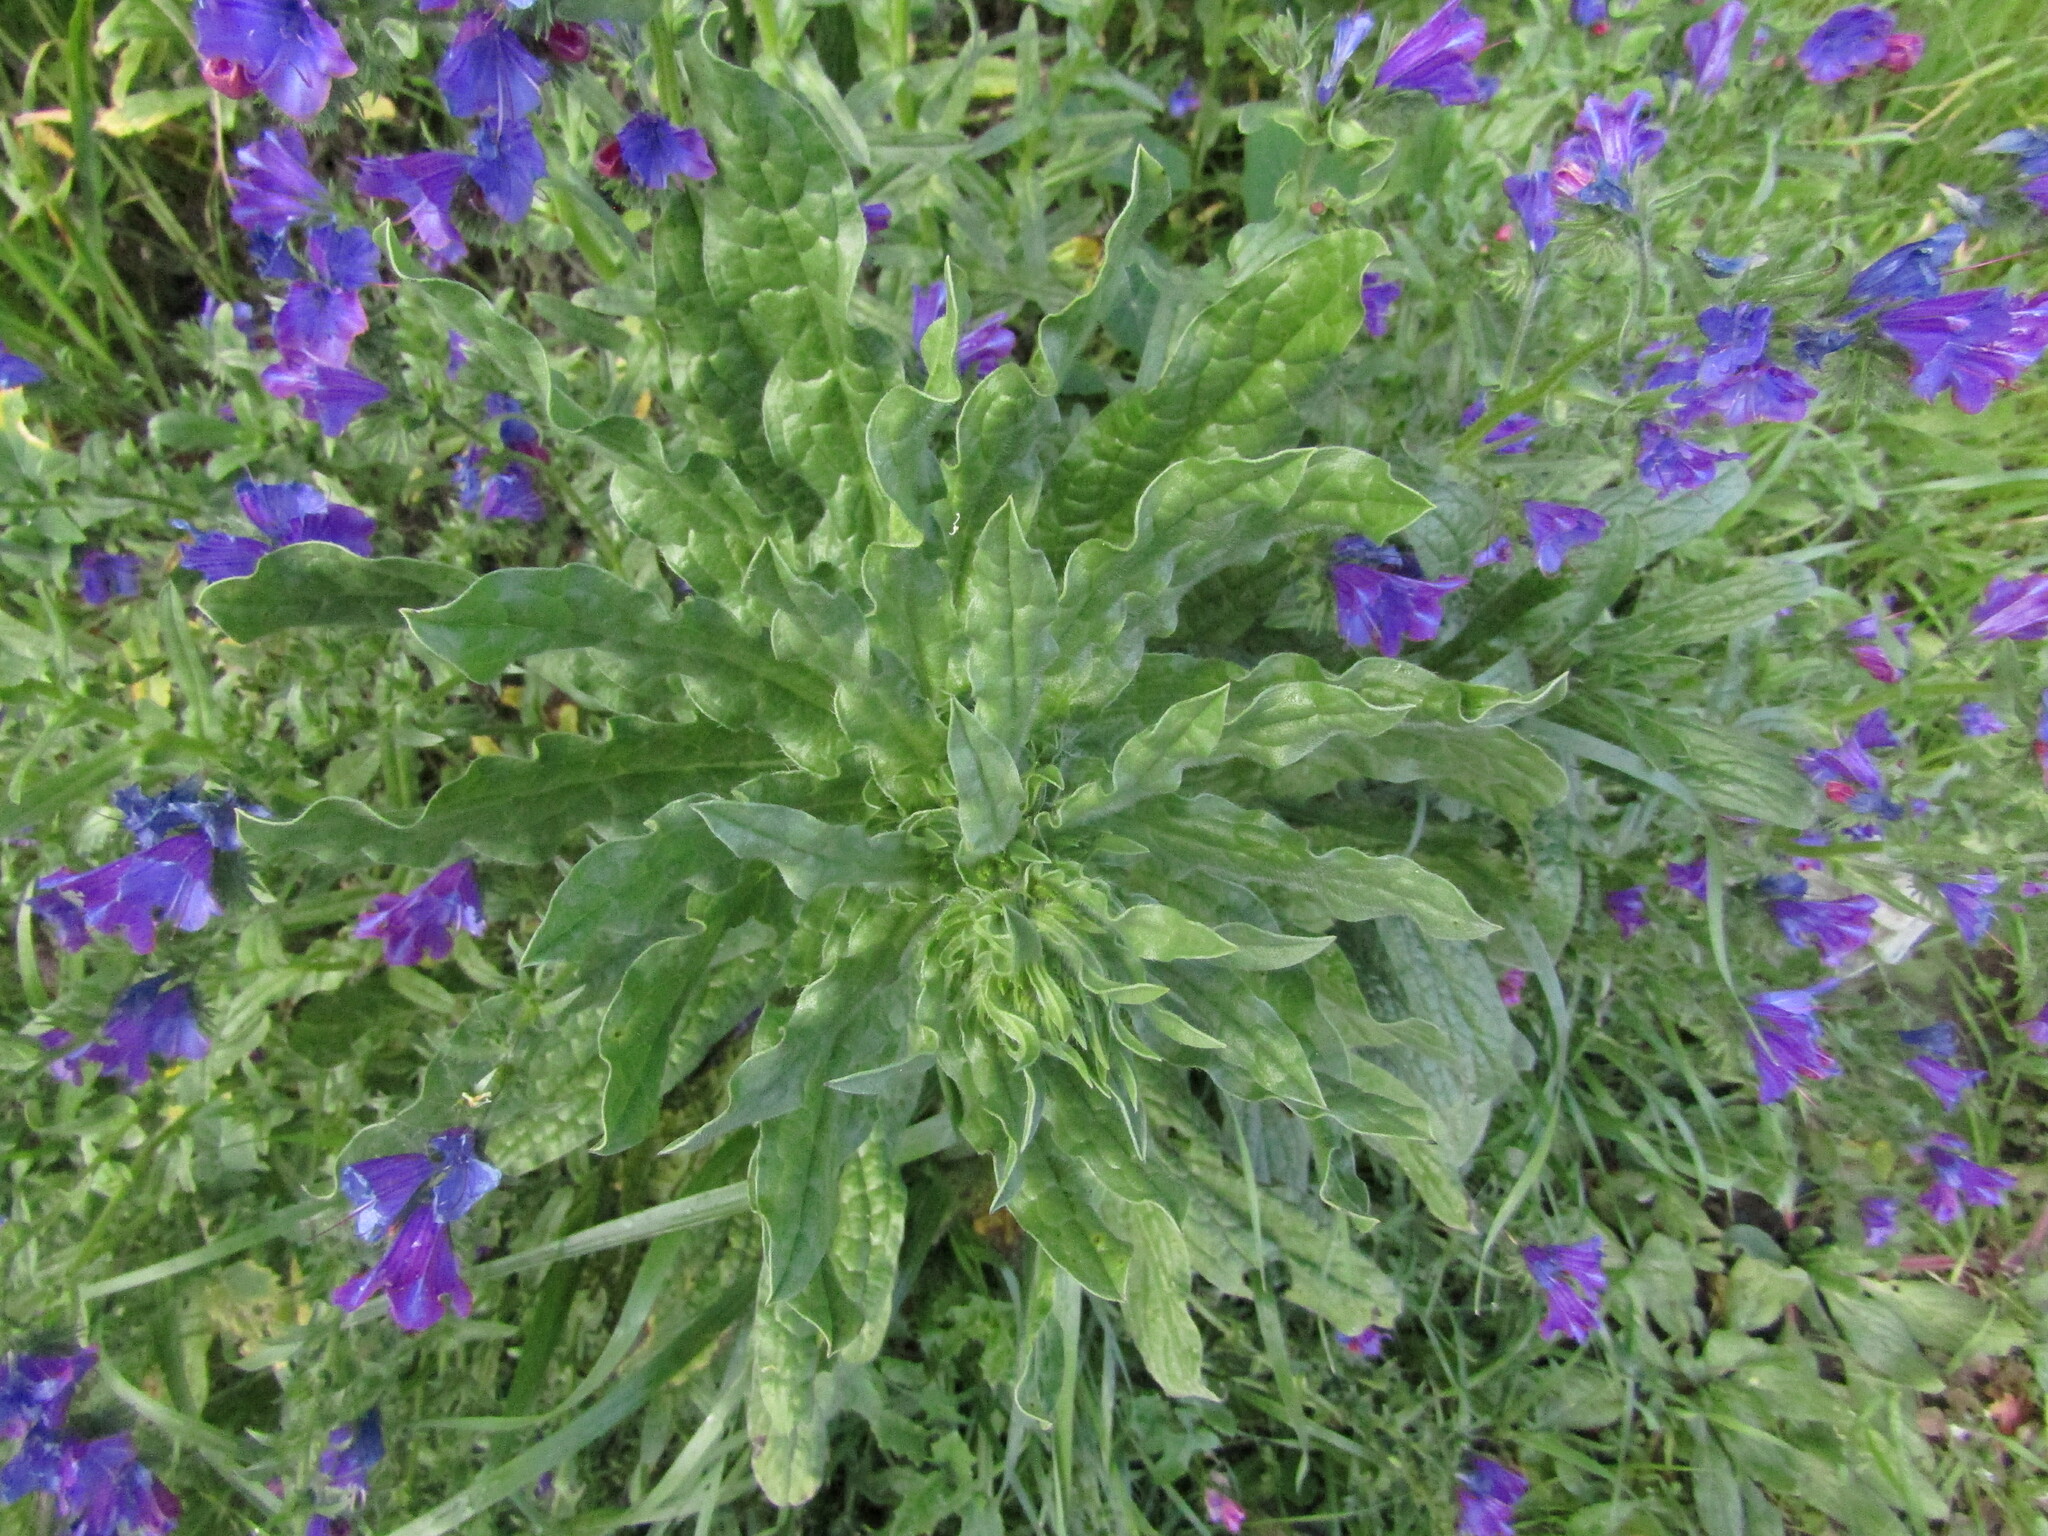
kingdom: Plantae
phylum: Tracheophyta
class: Magnoliopsida
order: Boraginales
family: Boraginaceae
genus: Echium
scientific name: Echium plantagineum
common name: Purple viper's-bugloss
